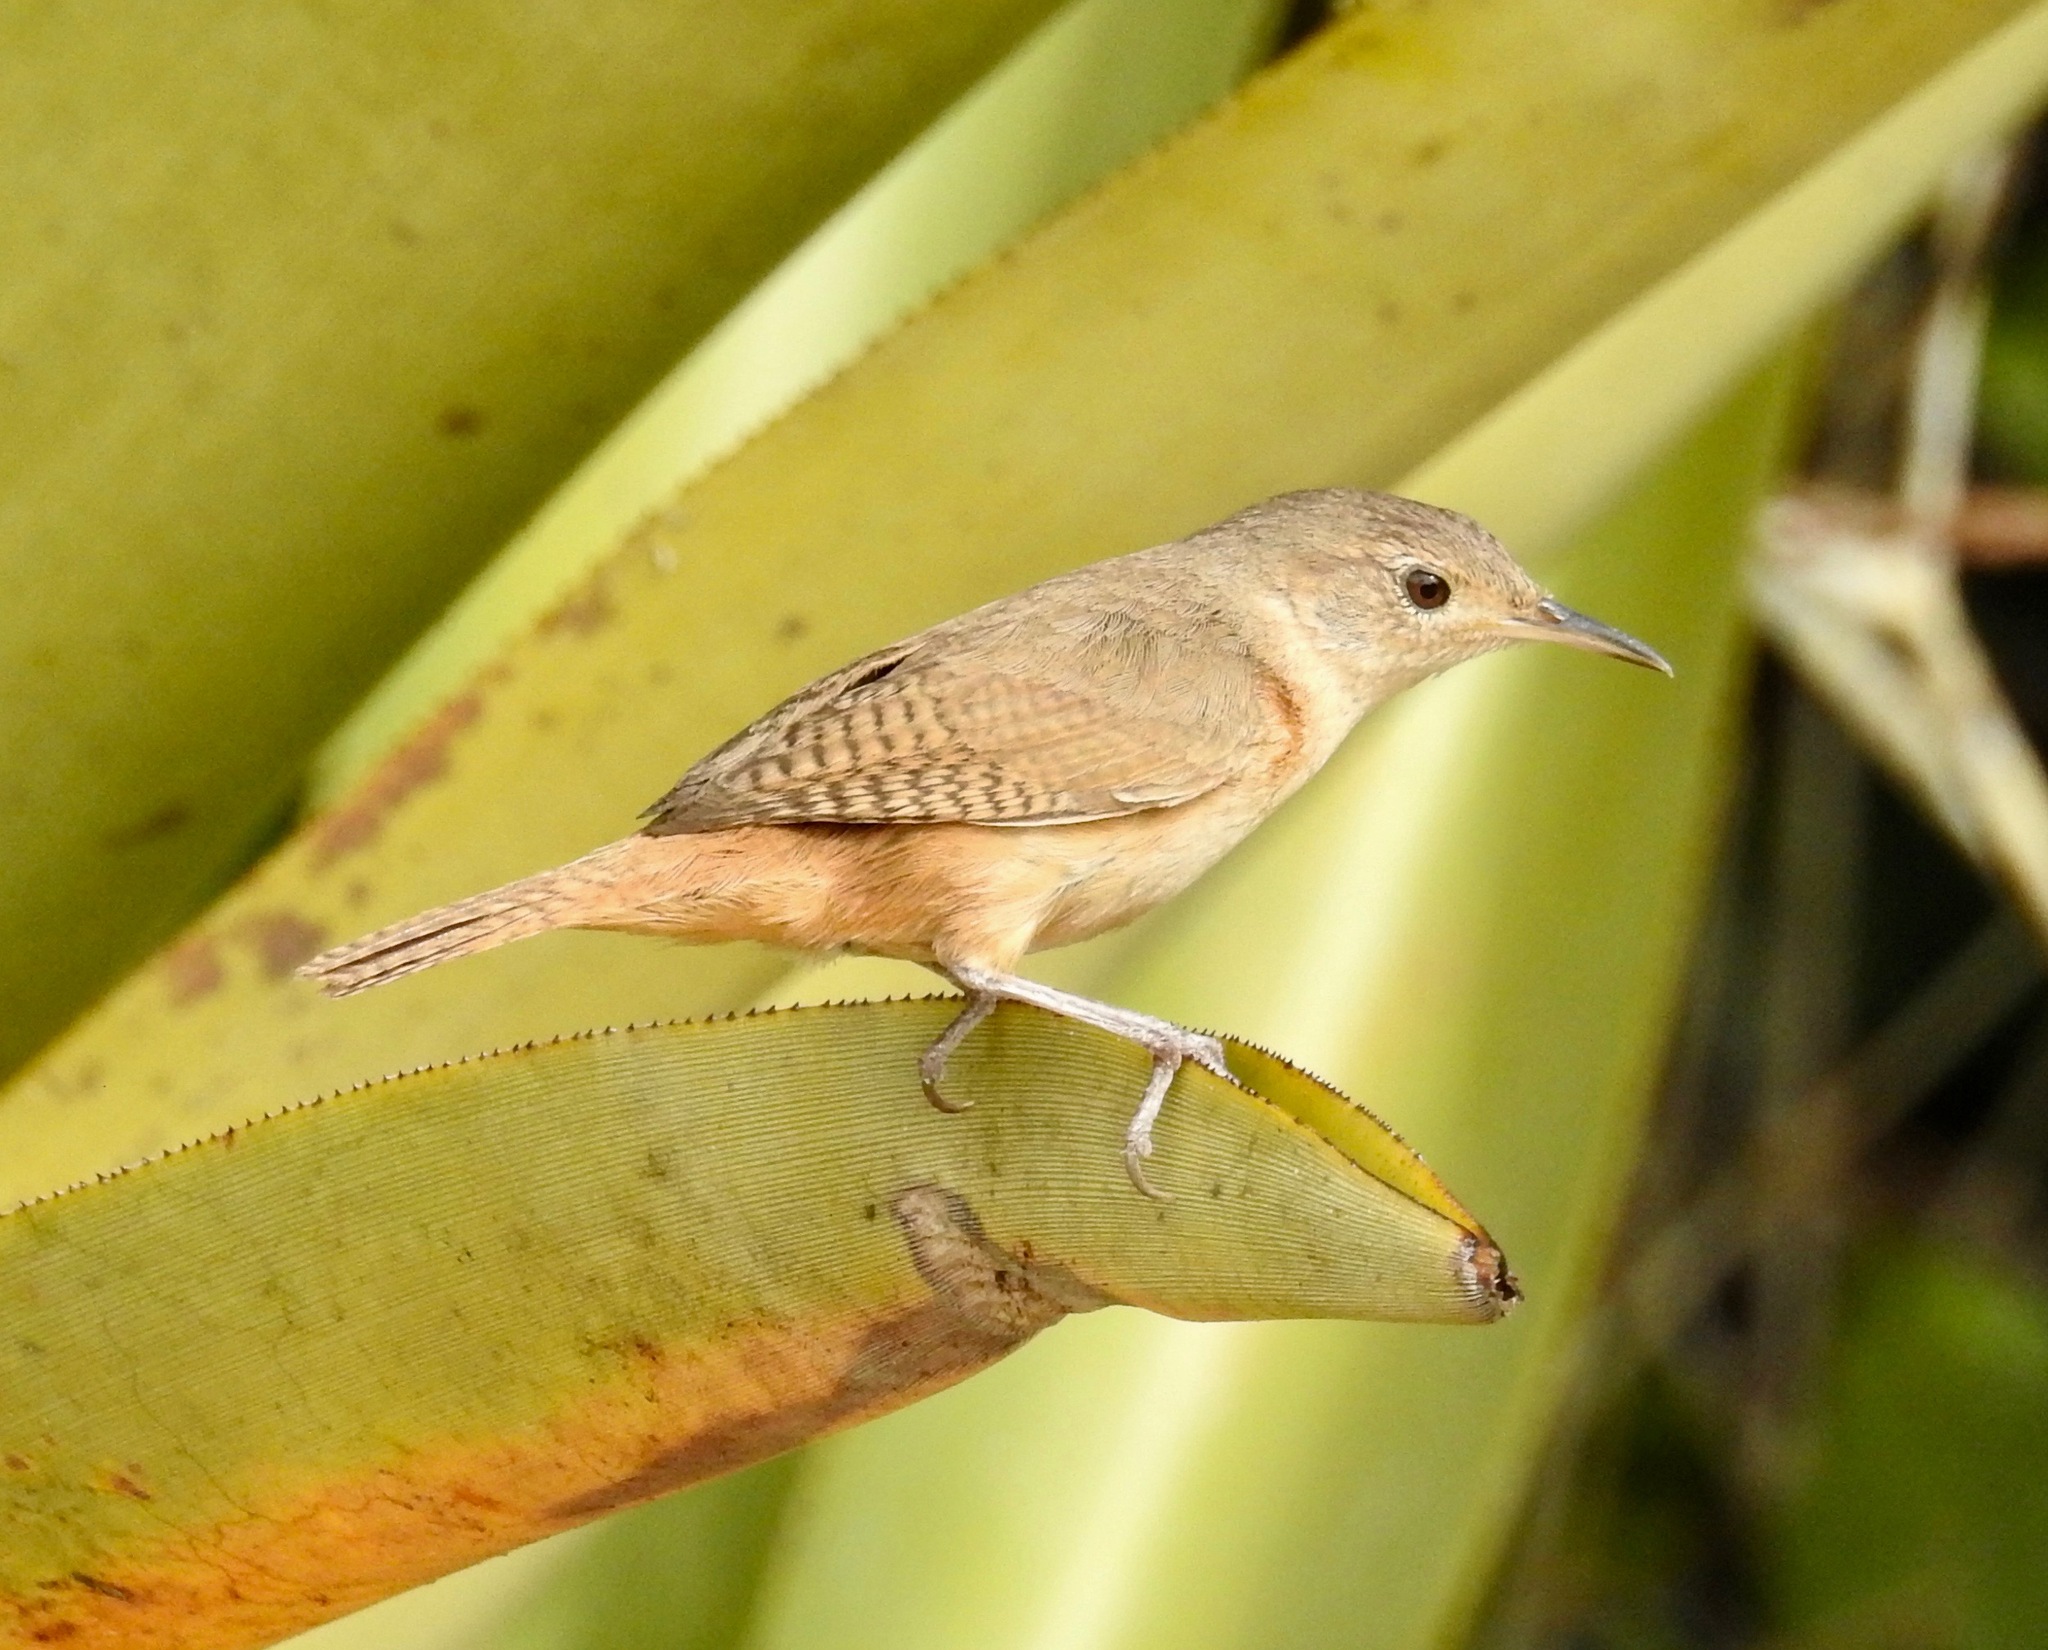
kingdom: Animalia
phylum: Chordata
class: Aves
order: Passeriformes
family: Troglodytidae
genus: Troglodytes
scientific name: Troglodytes aedon
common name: House wren
